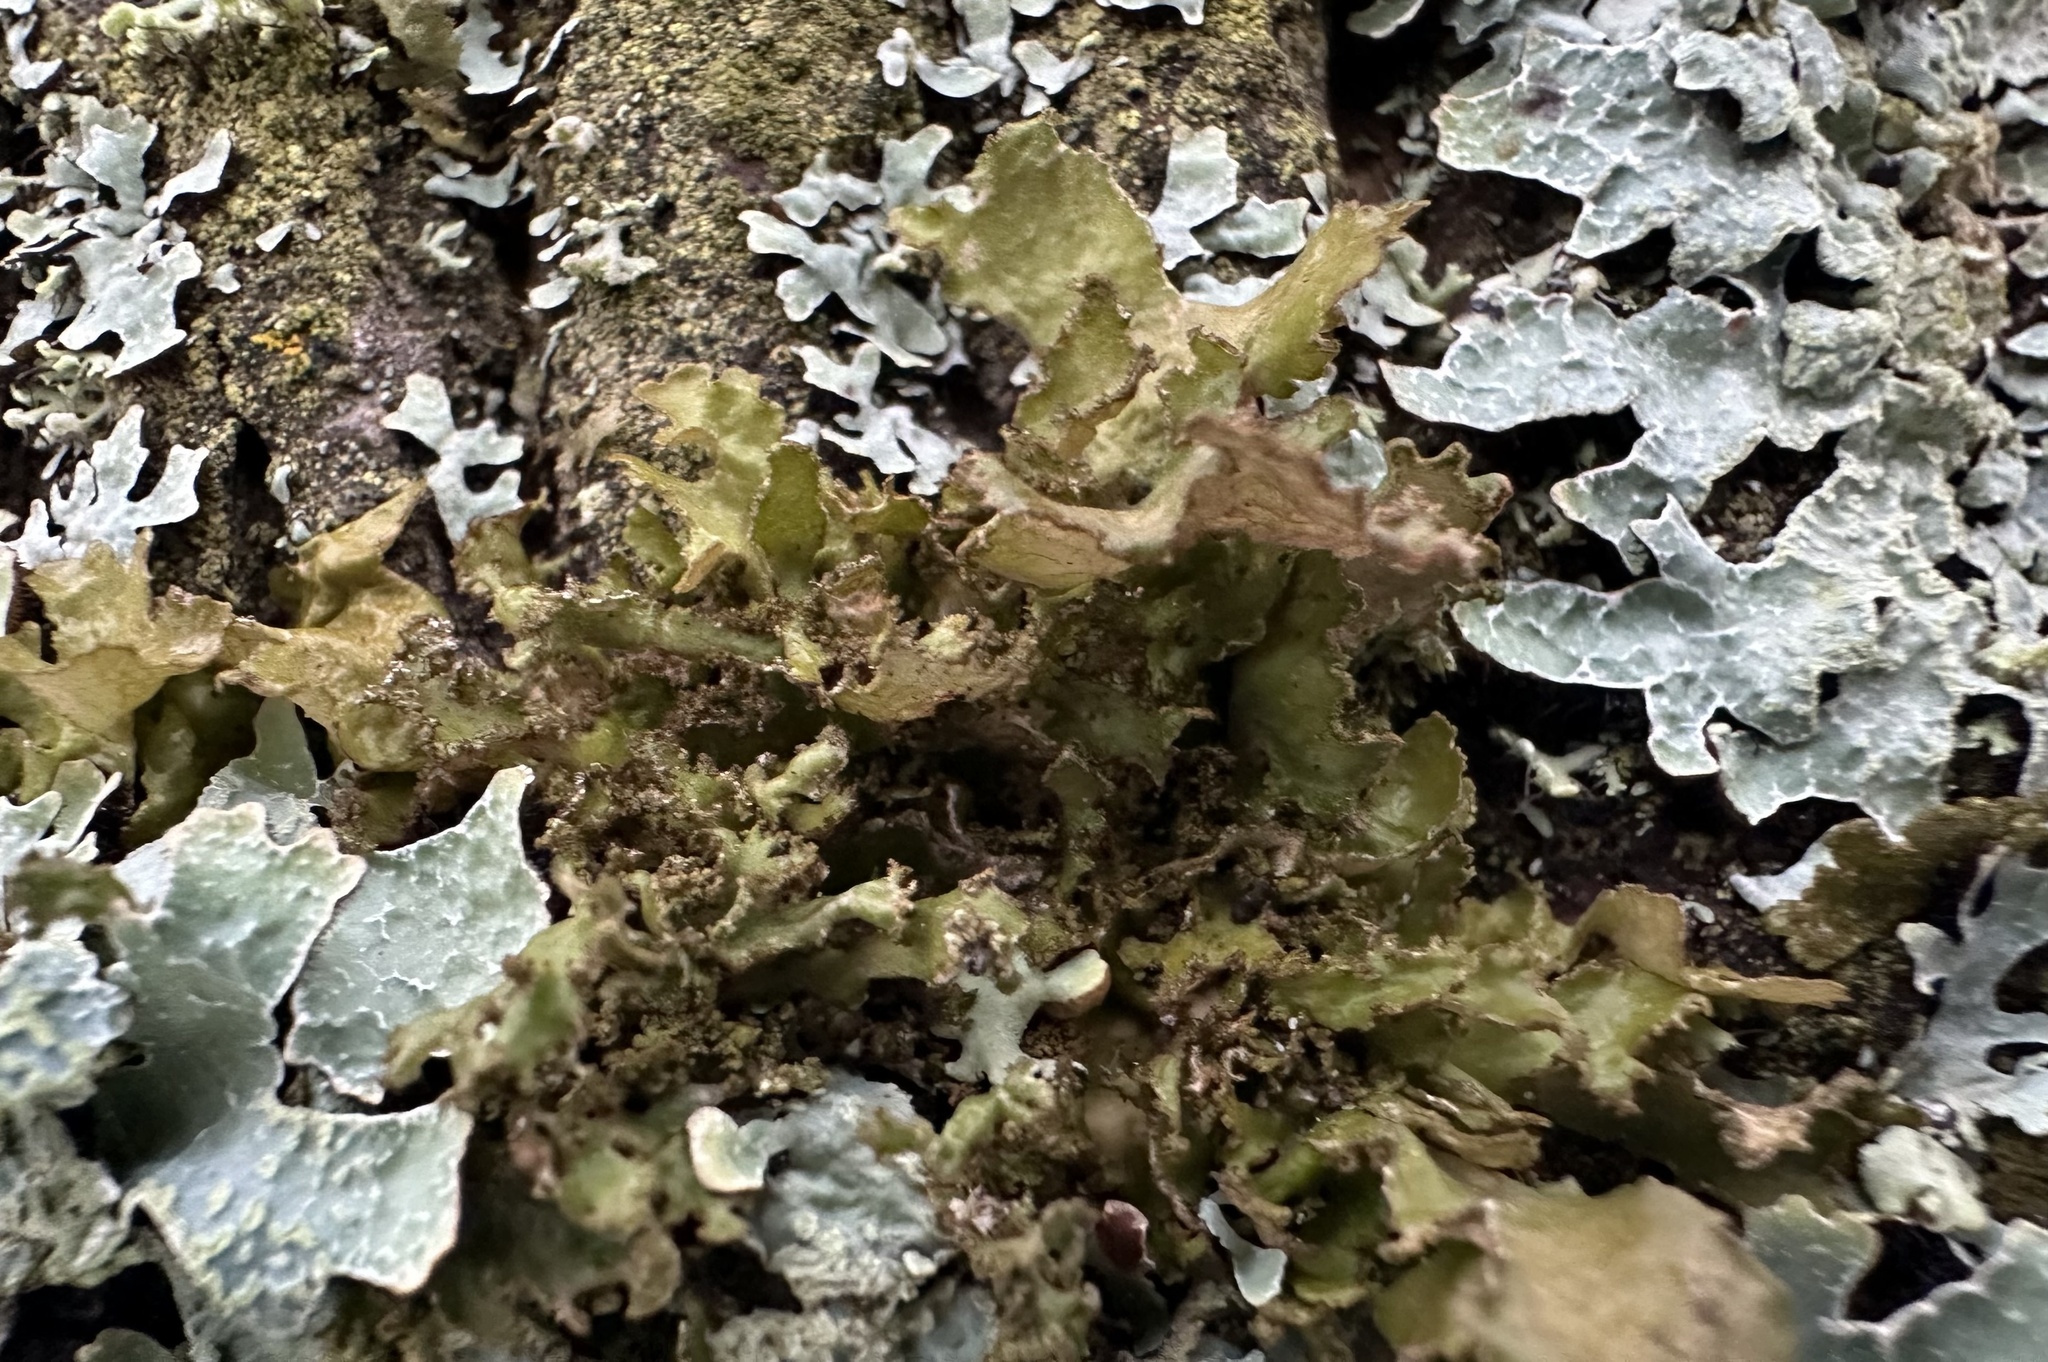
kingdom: Fungi
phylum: Ascomycota
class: Lecanoromycetes
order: Lecanorales
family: Parmeliaceae
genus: Nephromopsis
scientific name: Nephromopsis chlorophylla
